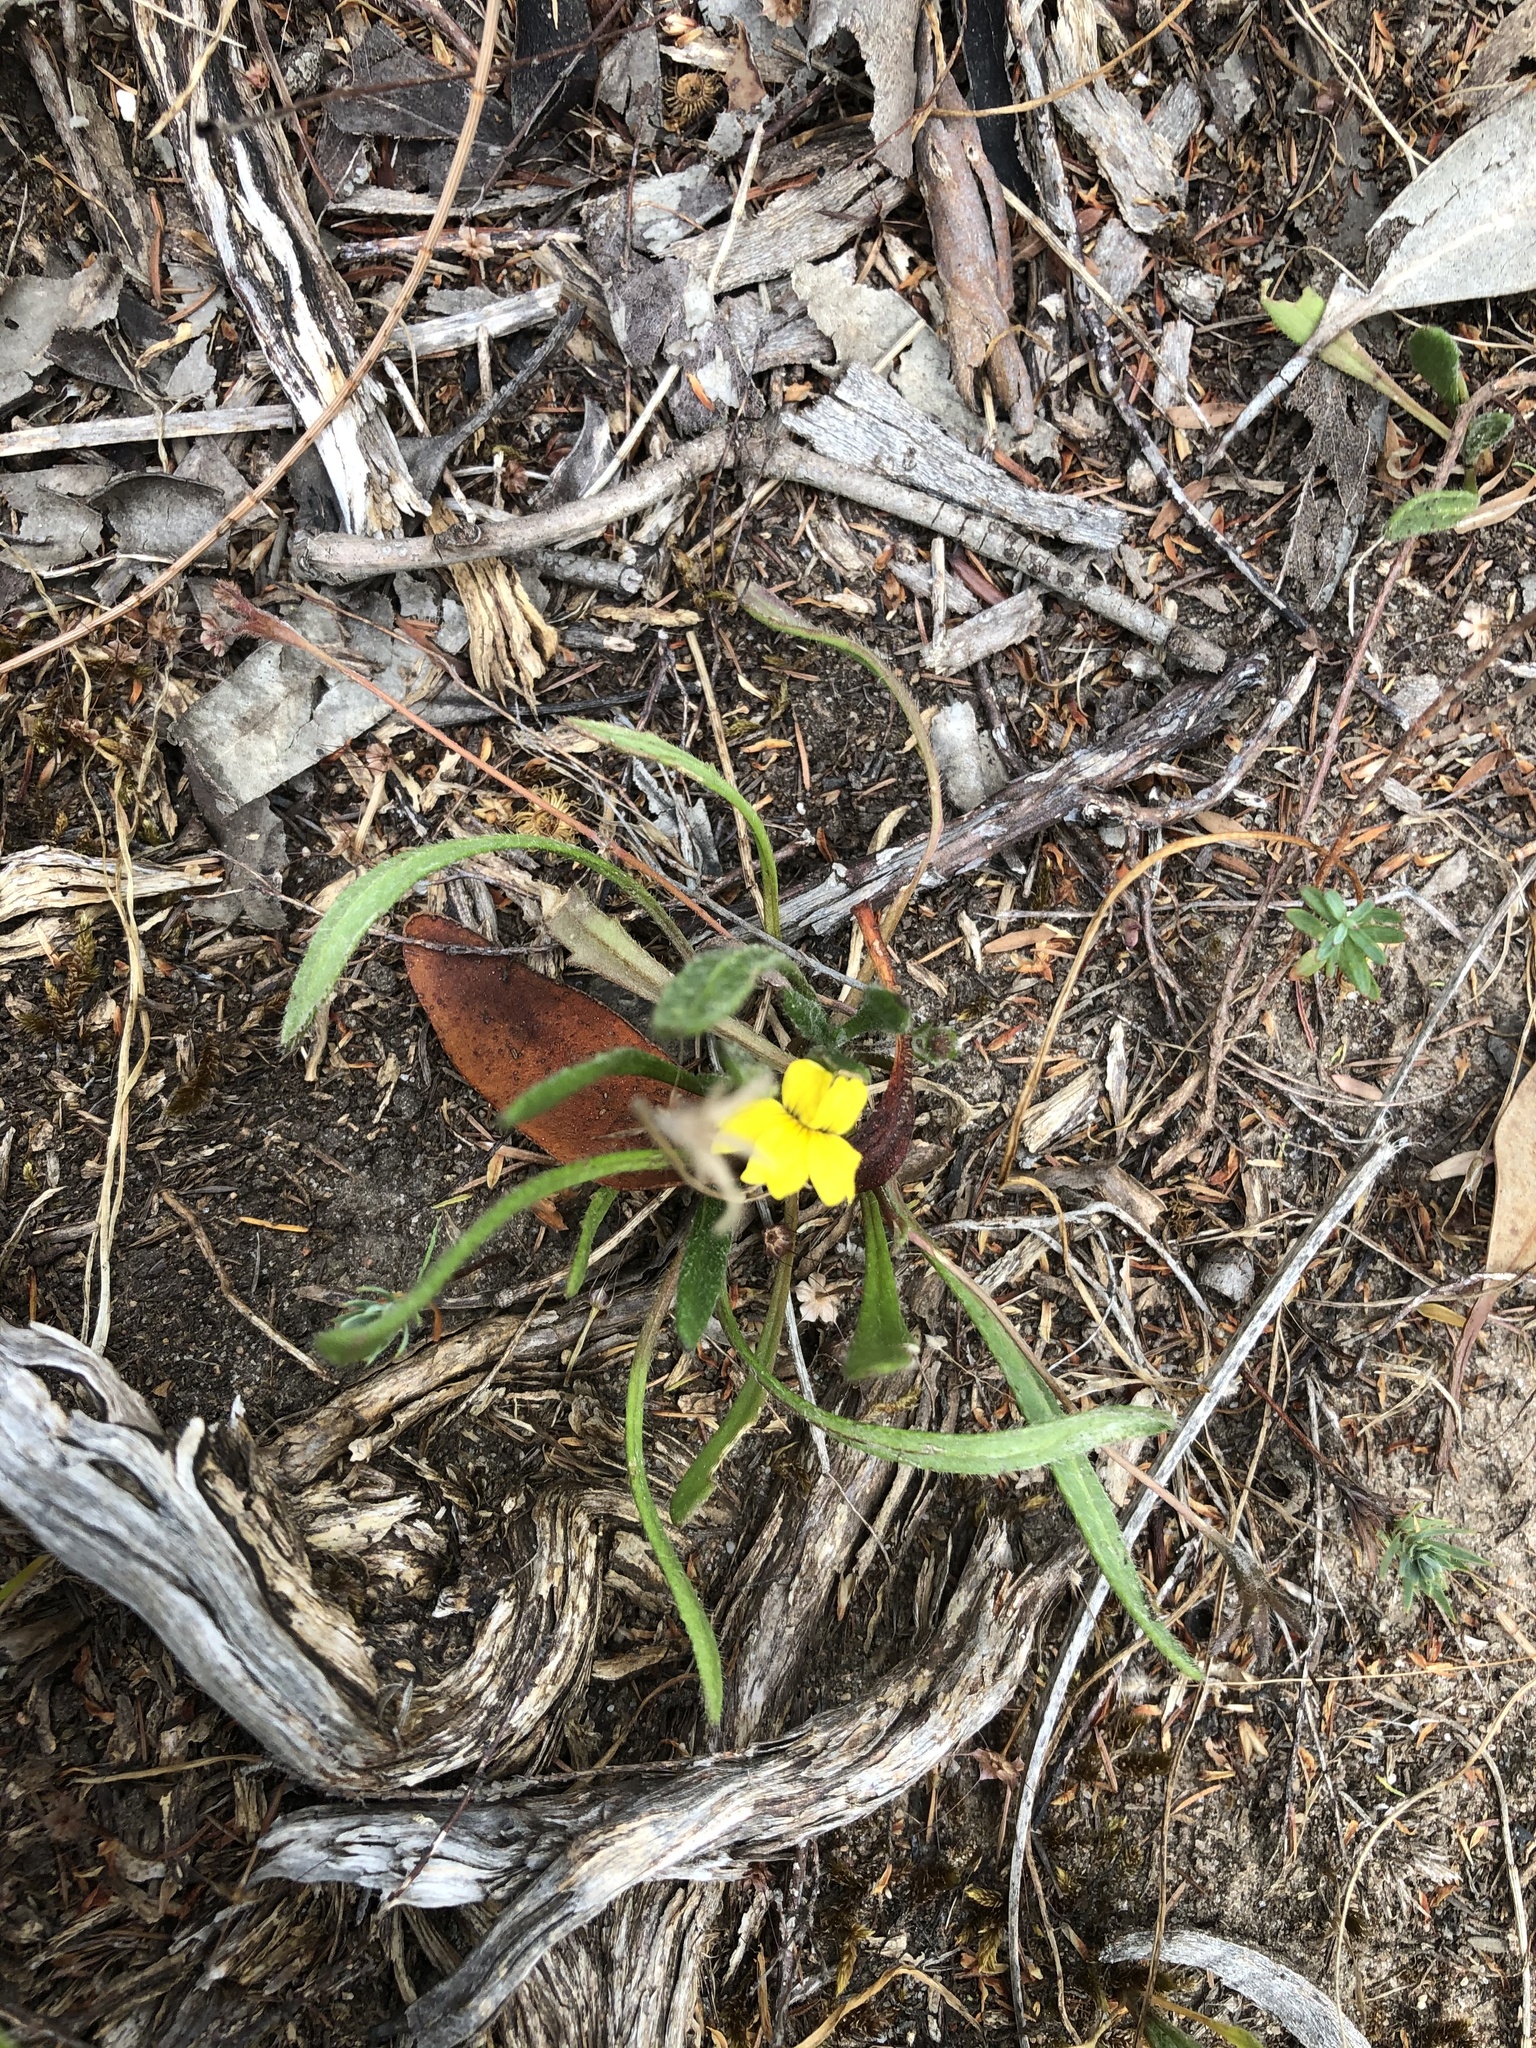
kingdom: Plantae
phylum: Tracheophyta
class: Magnoliopsida
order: Asterales
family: Goodeniaceae
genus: Goodenia
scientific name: Goodenia geniculata
